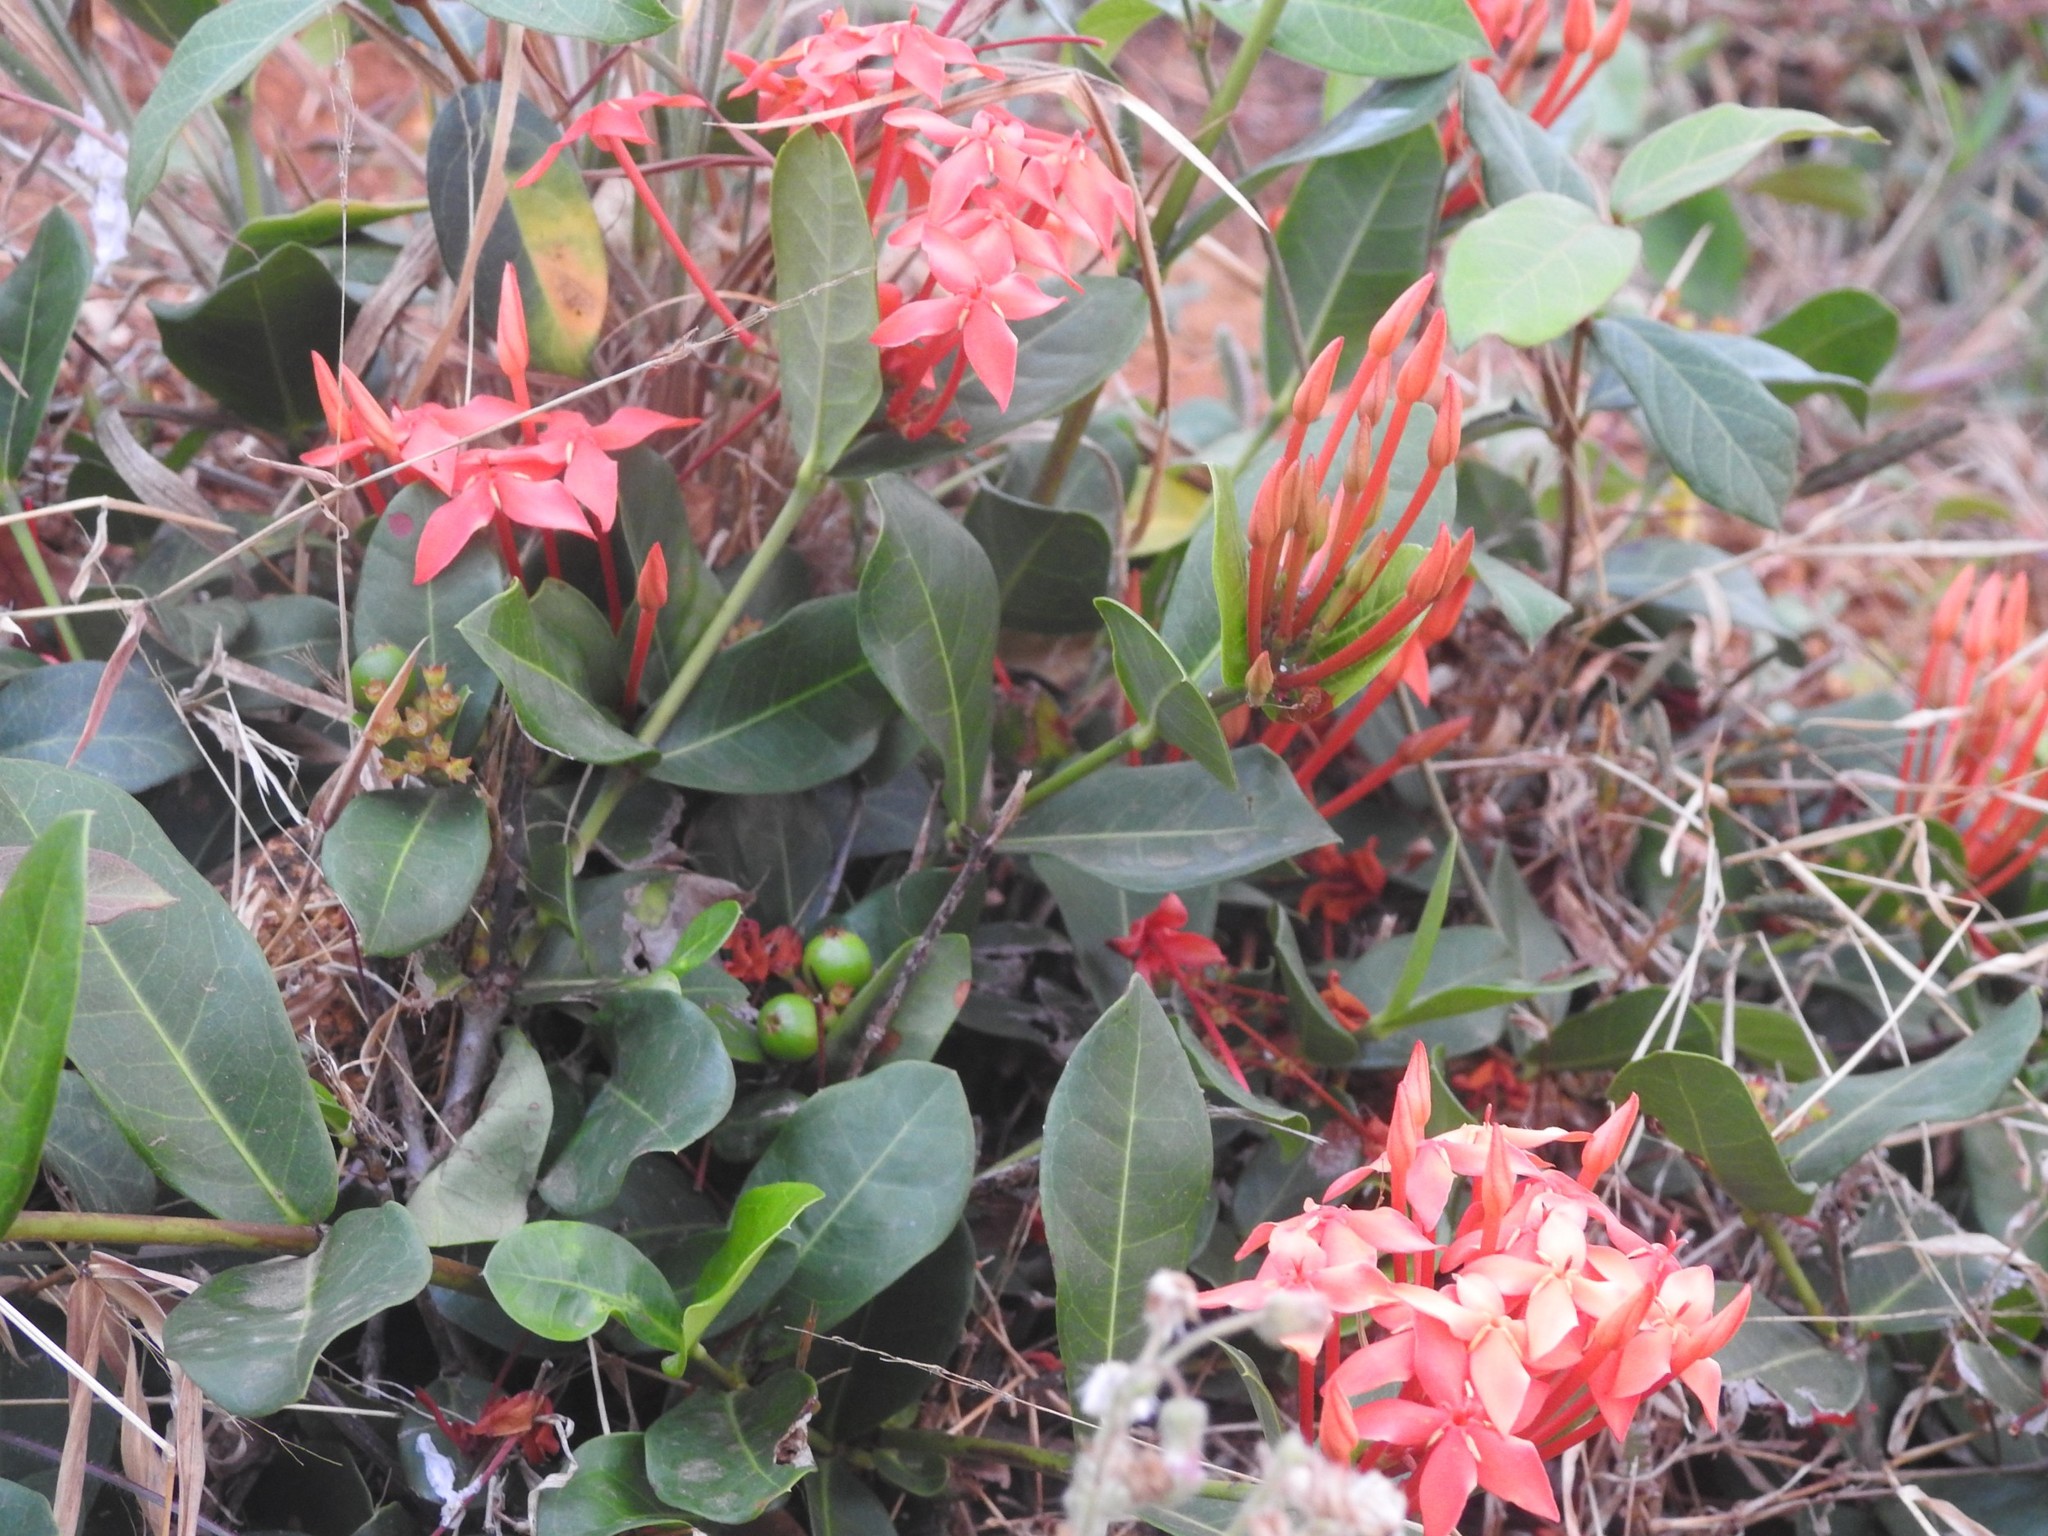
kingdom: Plantae
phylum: Tracheophyta
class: Magnoliopsida
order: Gentianales
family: Rubiaceae
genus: Ixora
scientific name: Ixora coccinea
